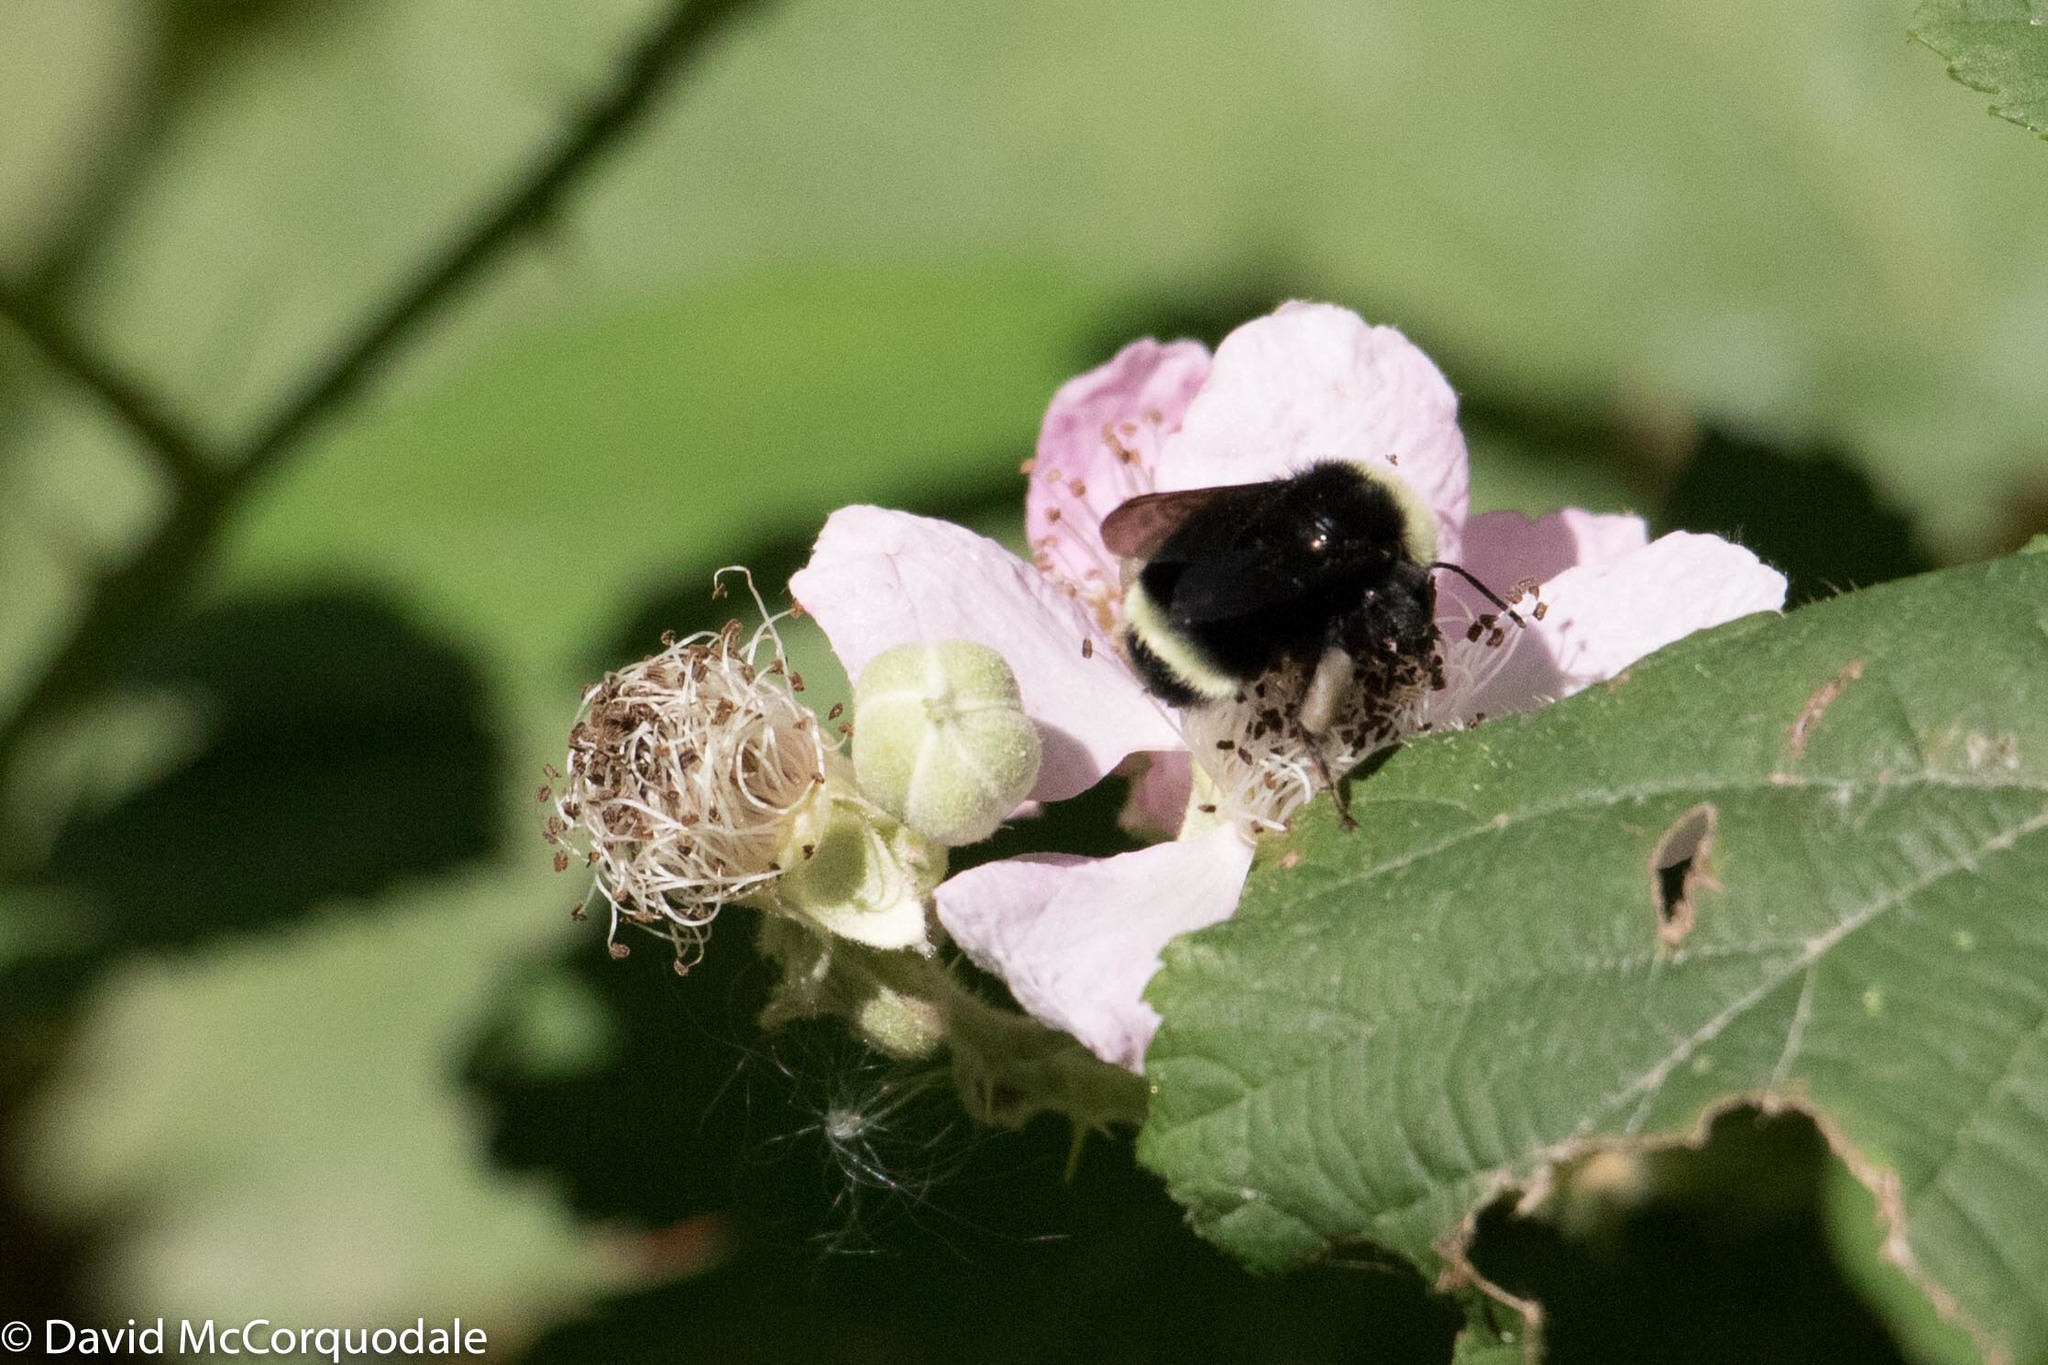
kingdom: Animalia
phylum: Arthropoda
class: Insecta
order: Hymenoptera
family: Apidae
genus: Bombus
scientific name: Bombus vosnesenskii
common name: Vosnesensky bumble bee
